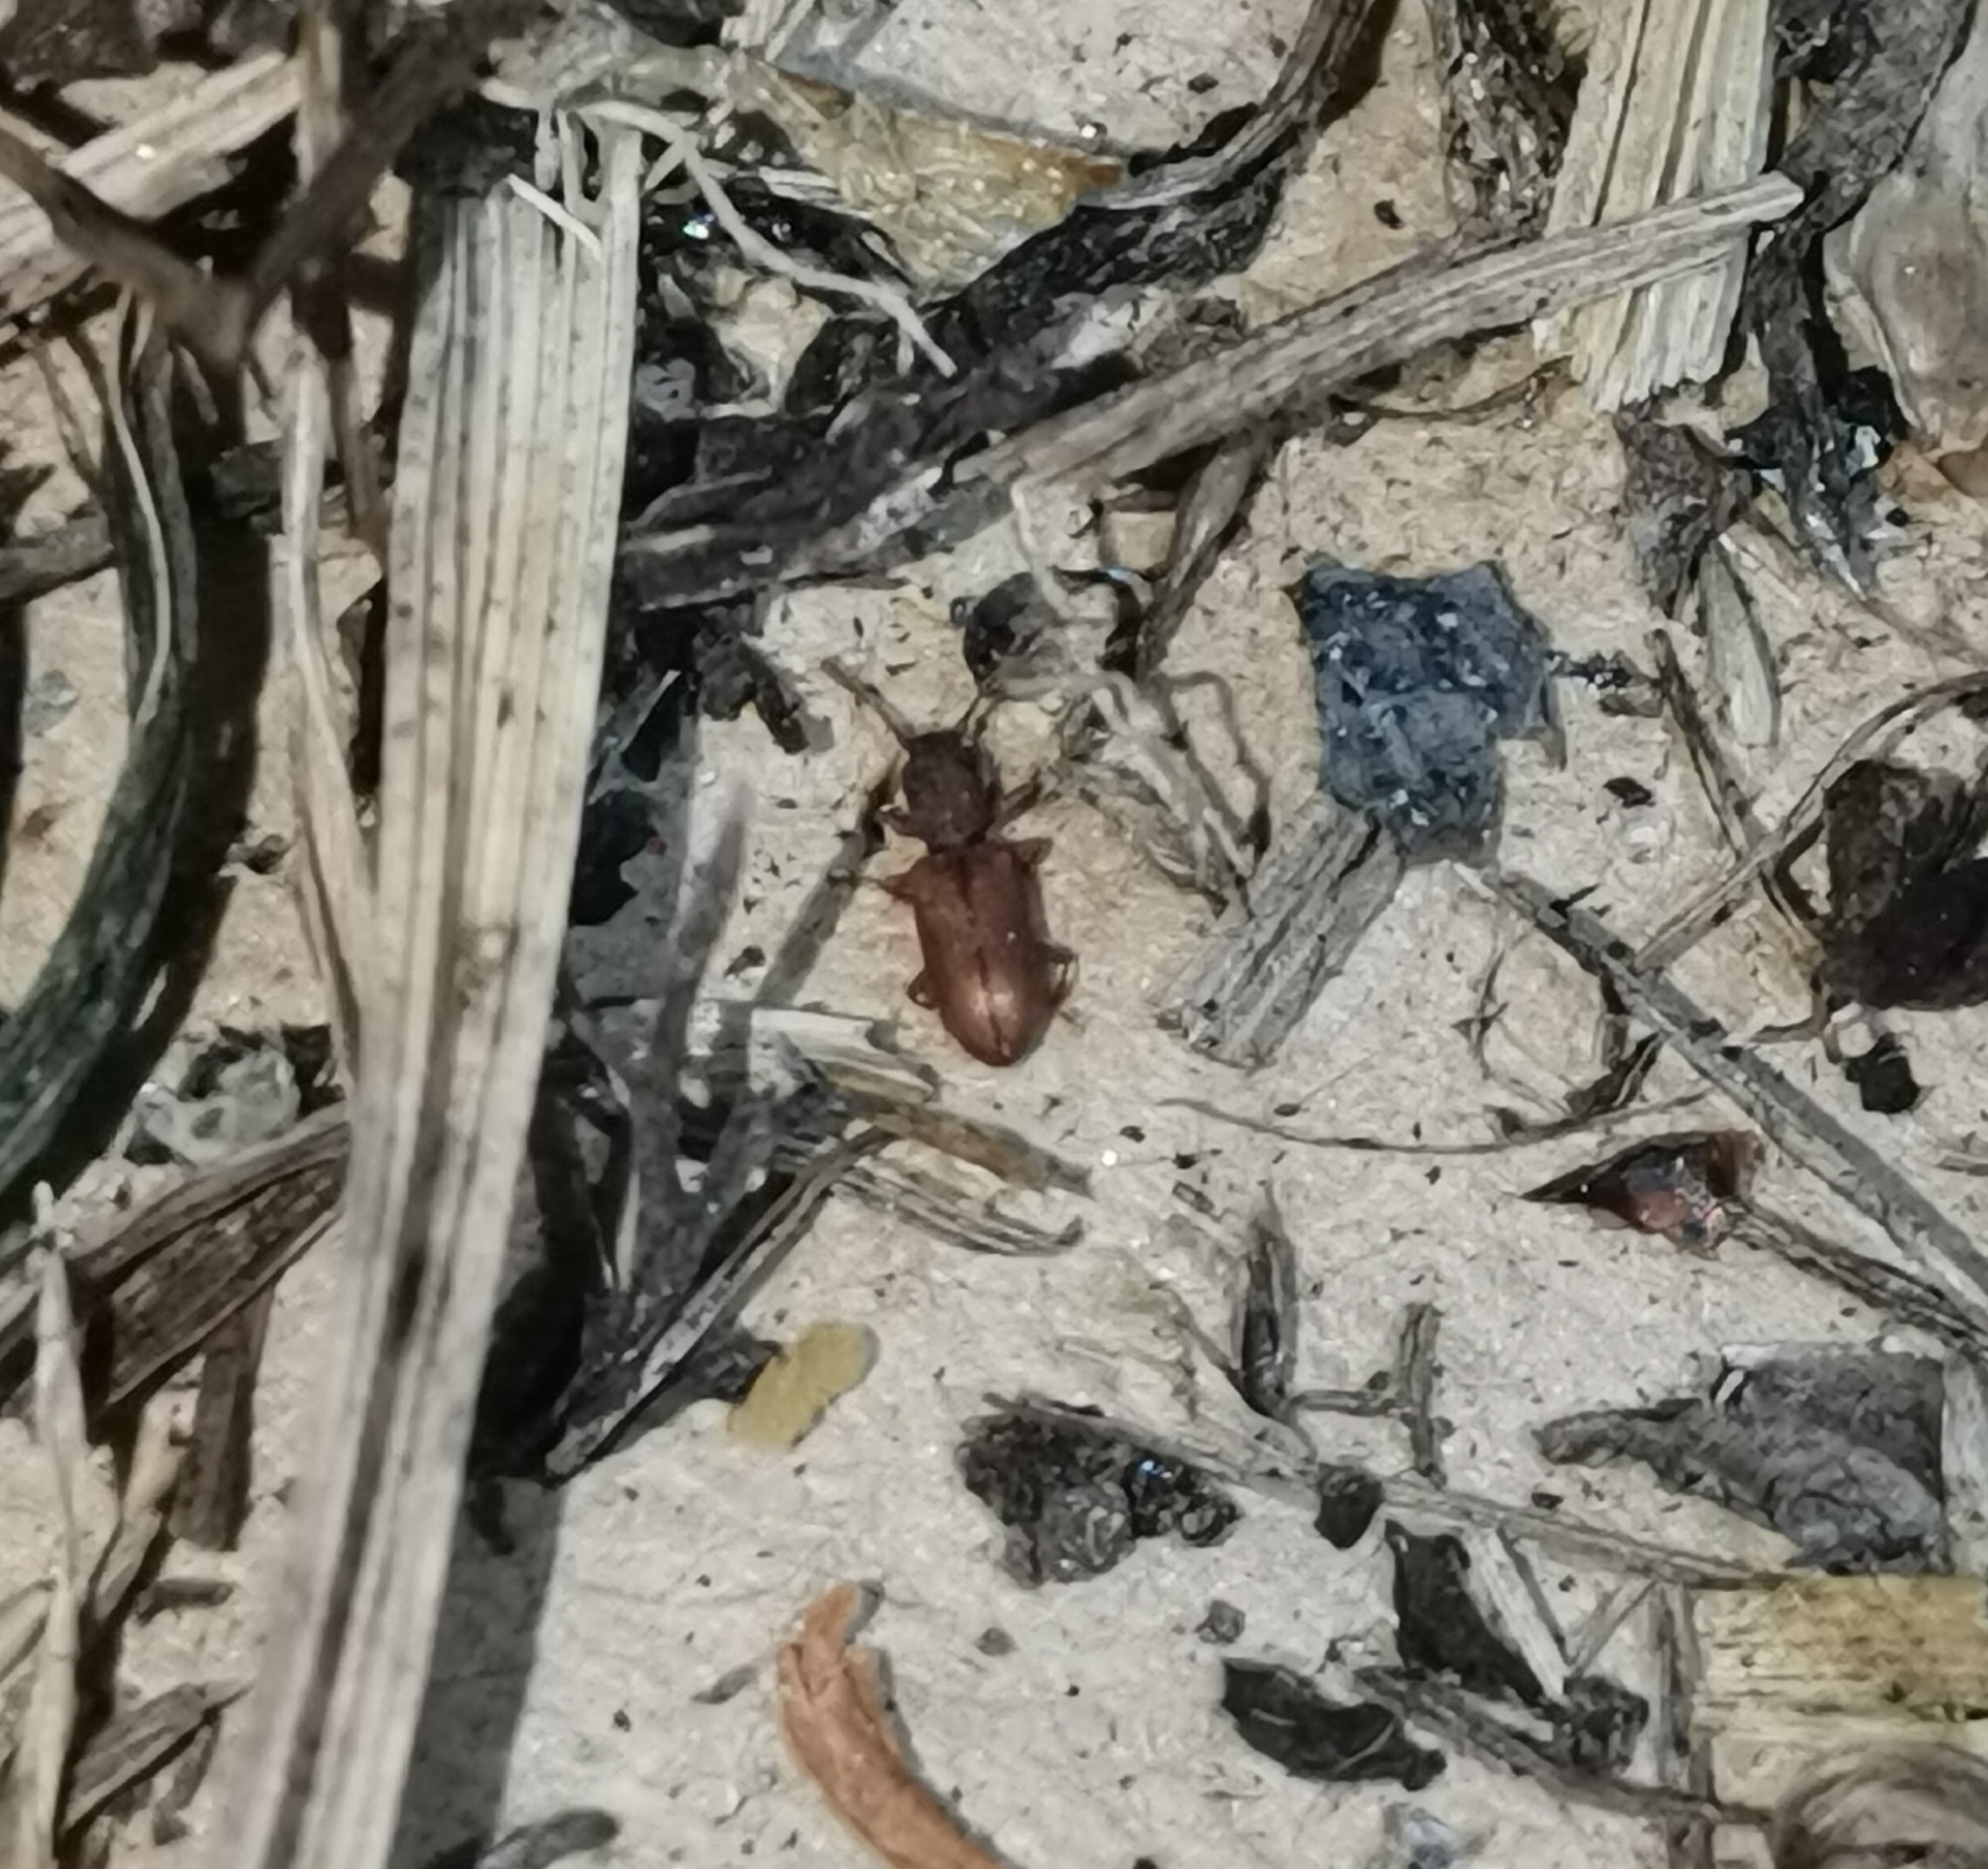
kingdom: Animalia
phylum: Arthropoda
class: Insecta
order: Coleoptera
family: Silvanidae
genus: Silvanoprus
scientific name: Silvanoprus fagi
